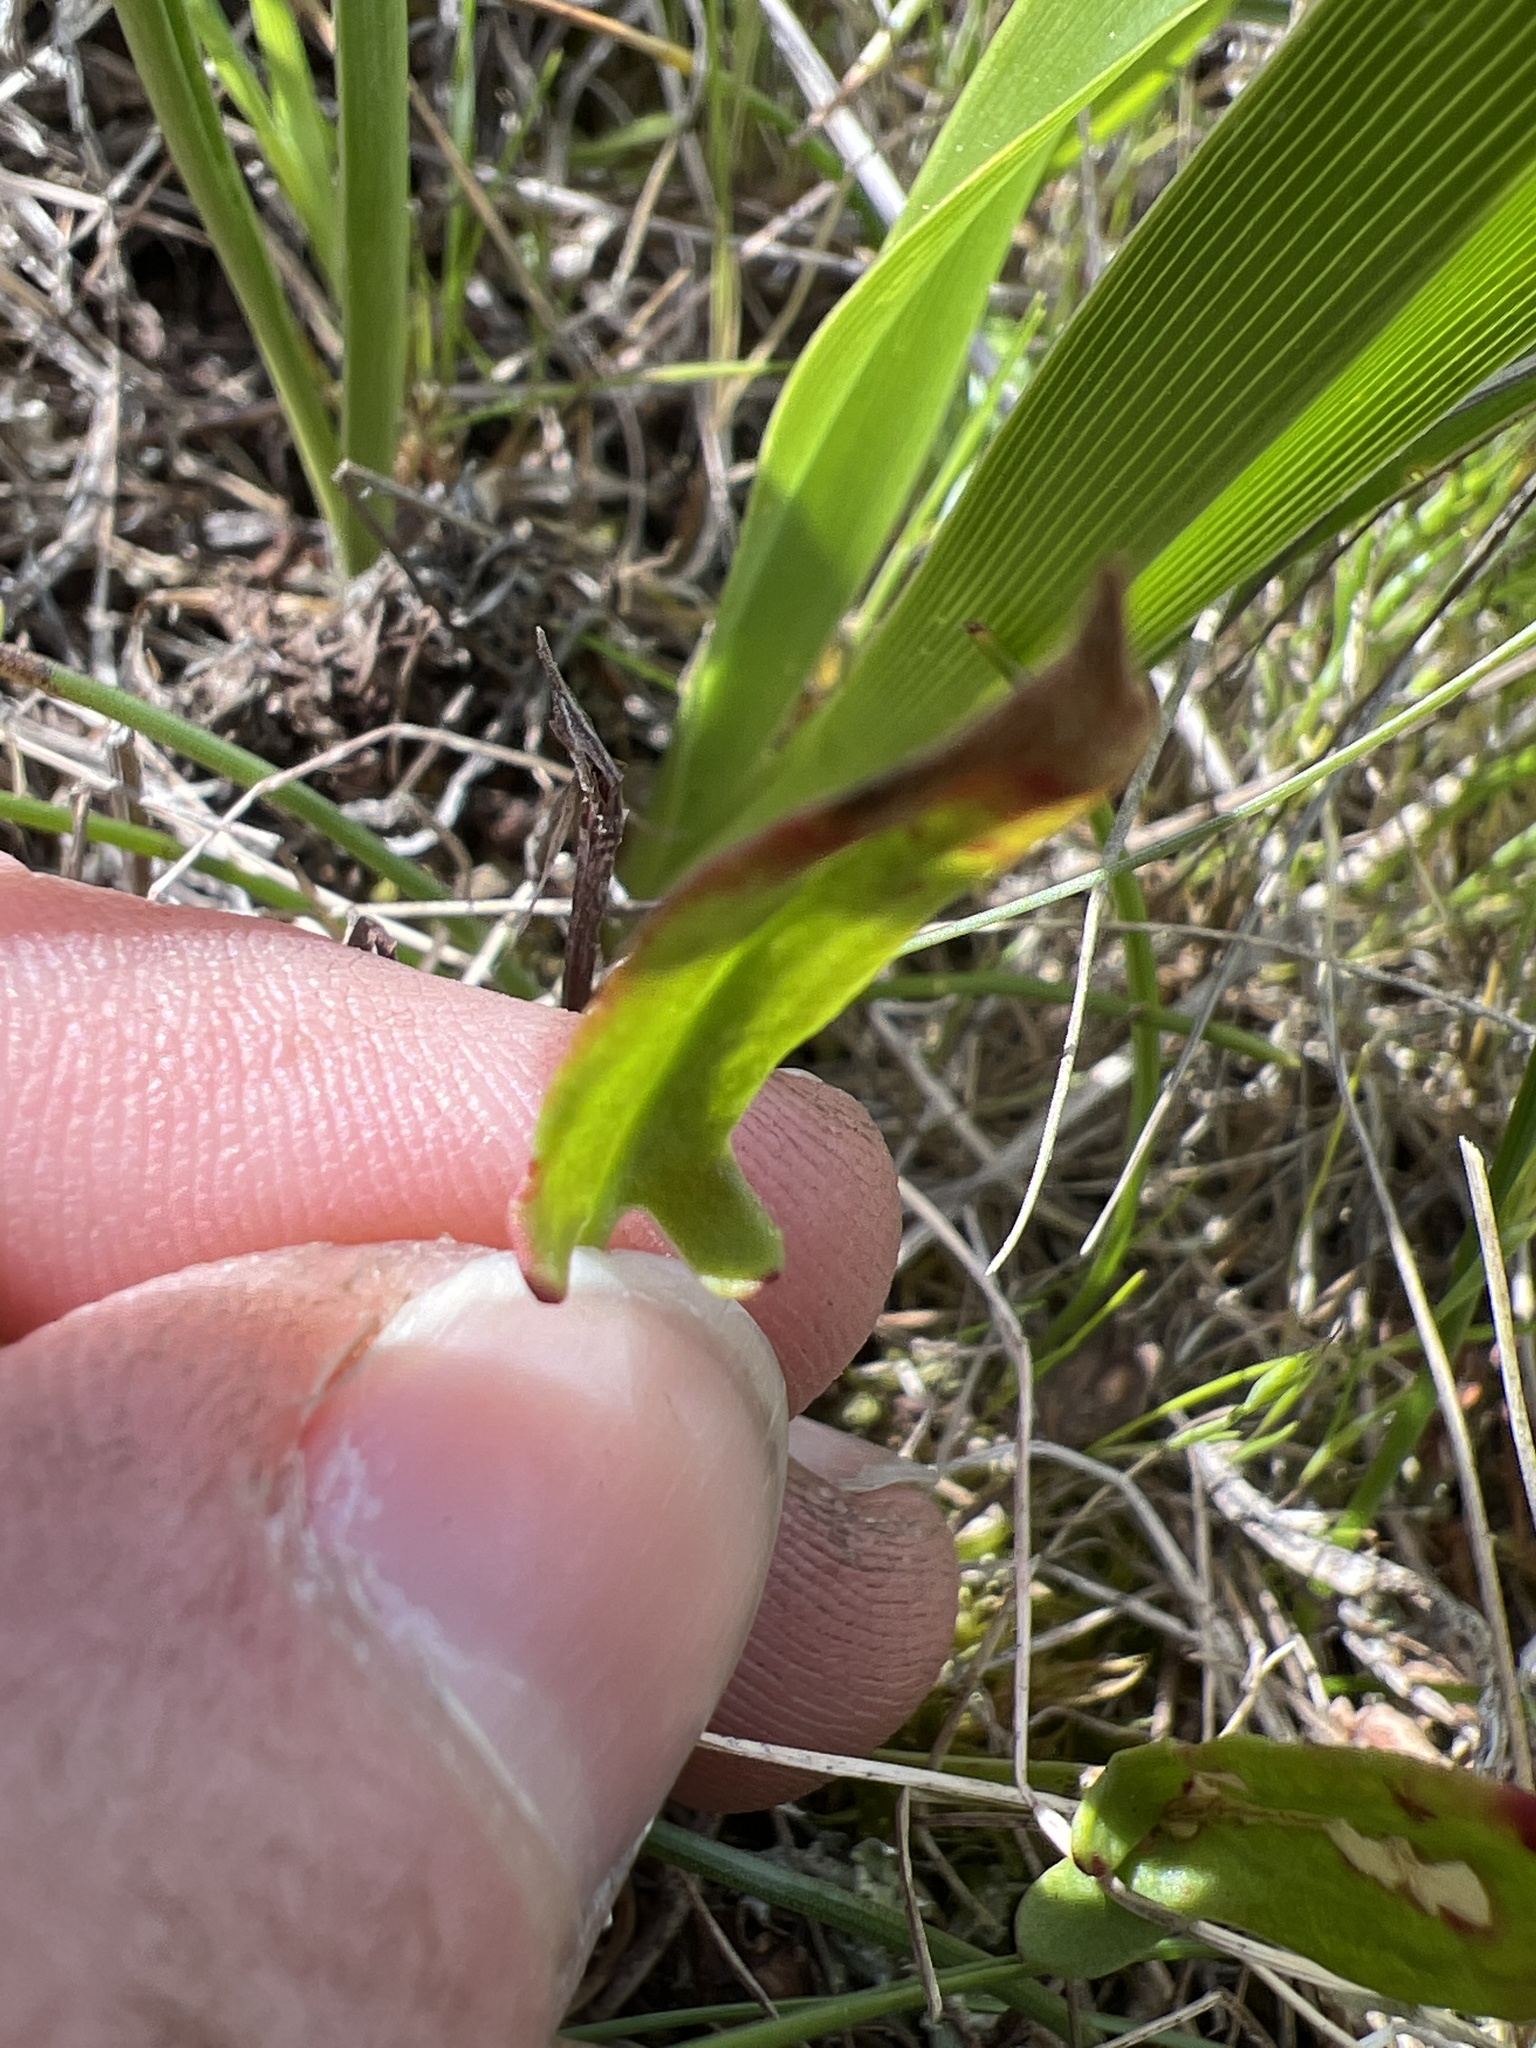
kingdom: Plantae
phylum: Tracheophyta
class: Magnoliopsida
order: Caryophyllales
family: Polygonaceae
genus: Rumex
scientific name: Rumex acetosella
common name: Common sheep sorrel
